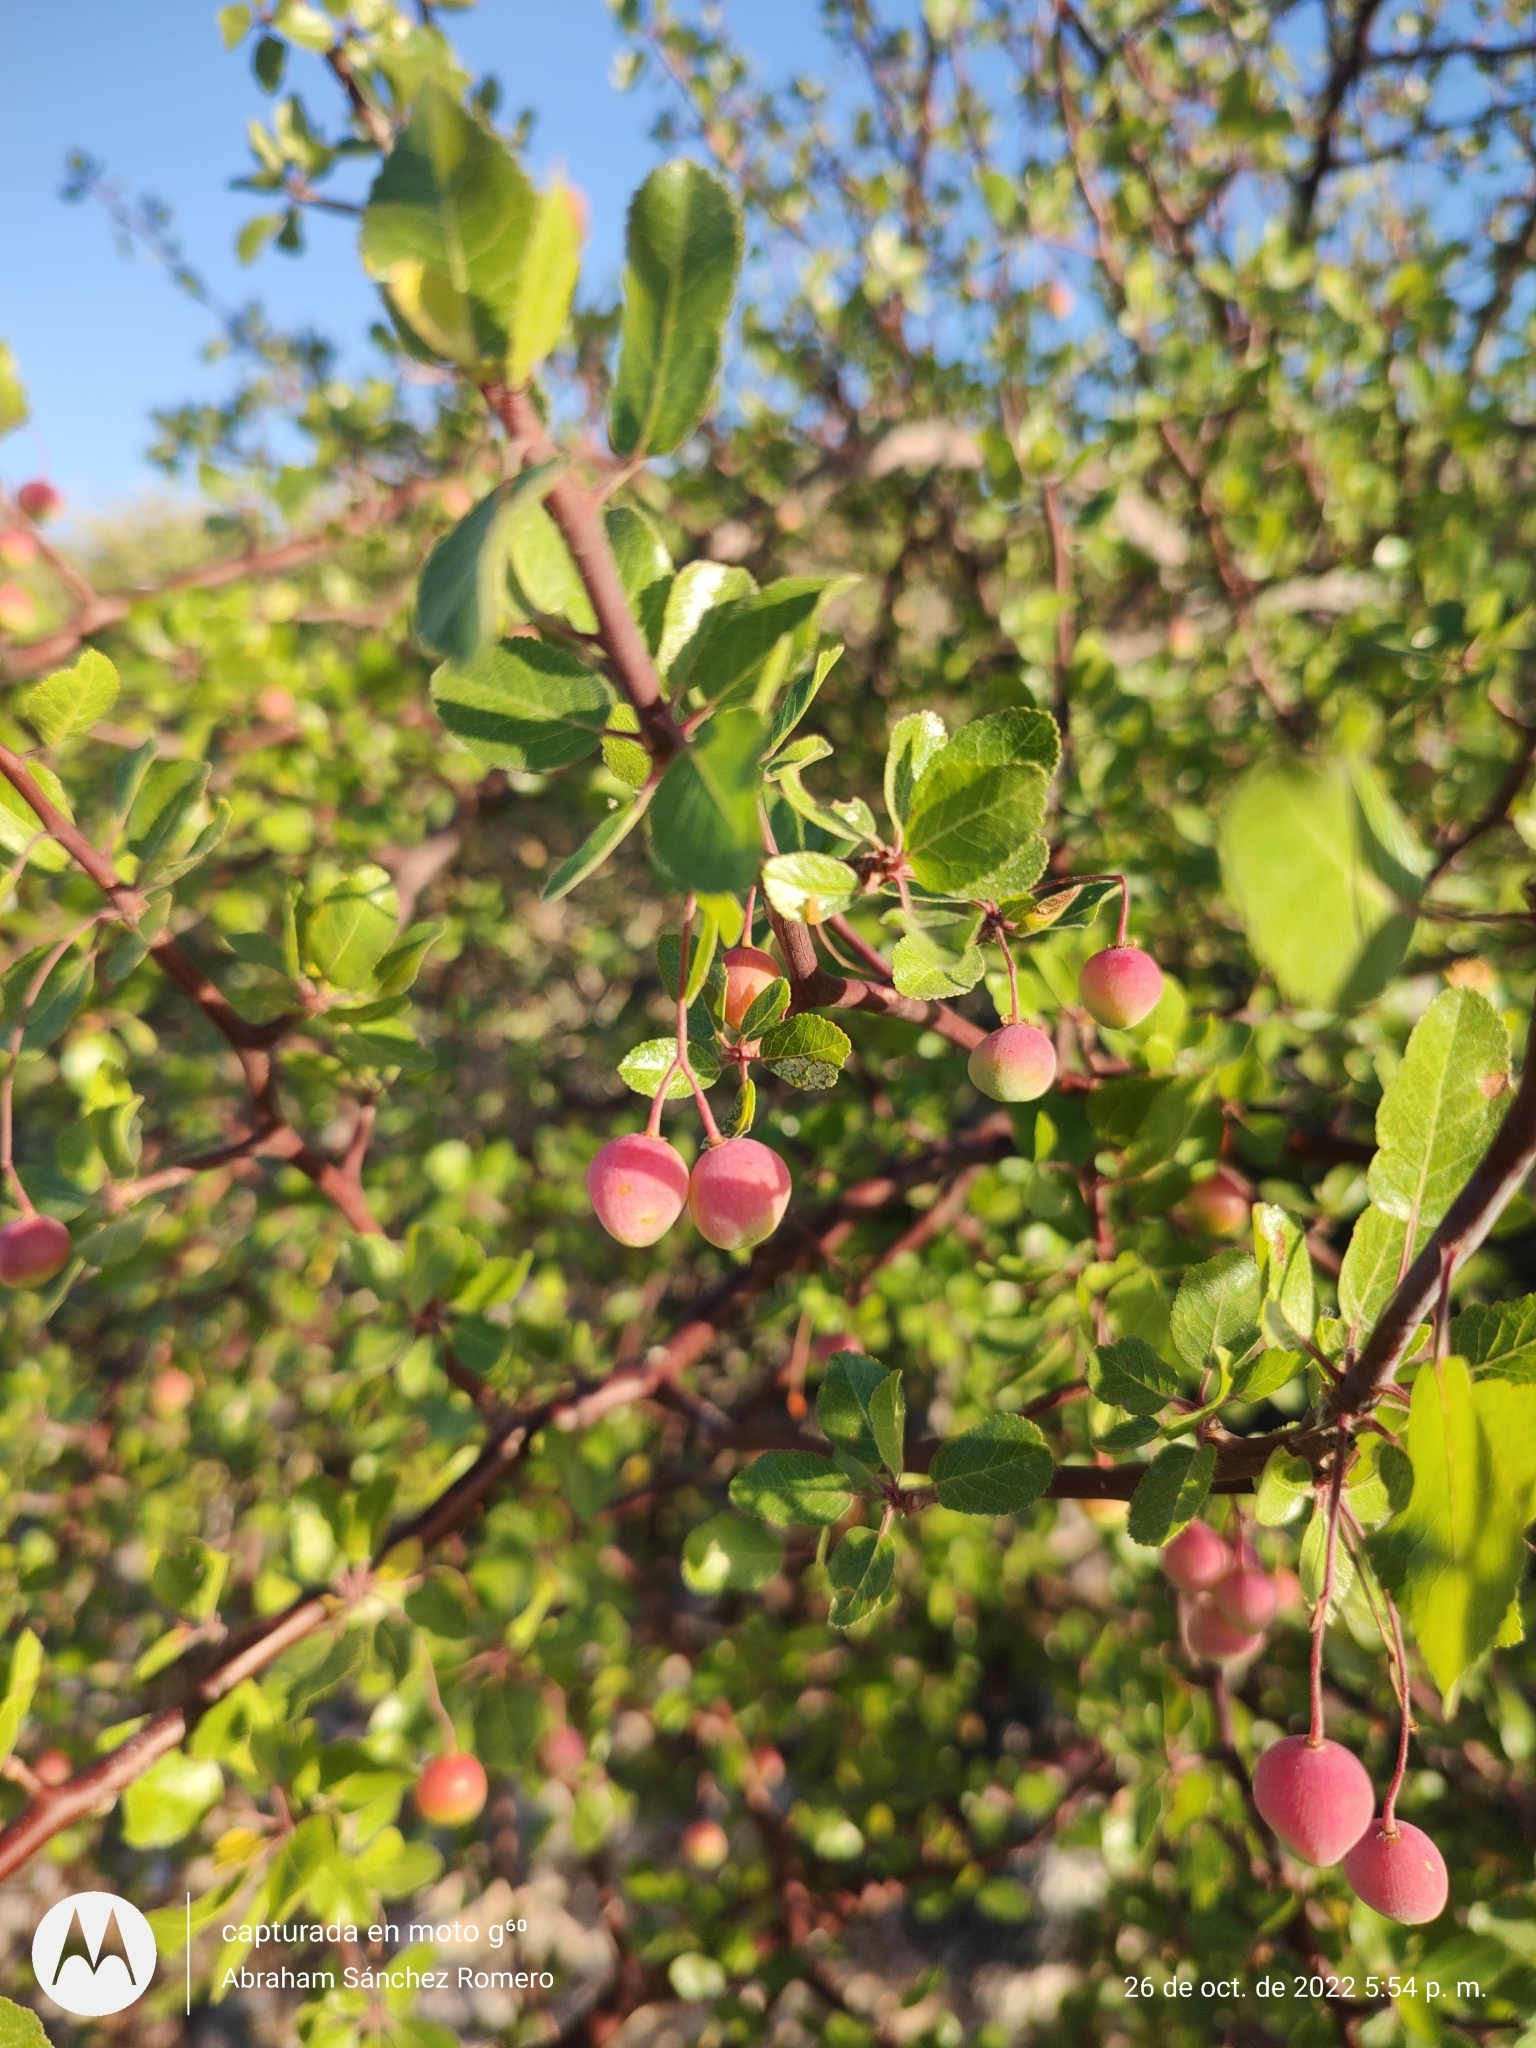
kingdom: Plantae
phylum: Tracheophyta
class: Magnoliopsida
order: Sapindales
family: Burseraceae
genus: Bursera
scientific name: Bursera epinnata
